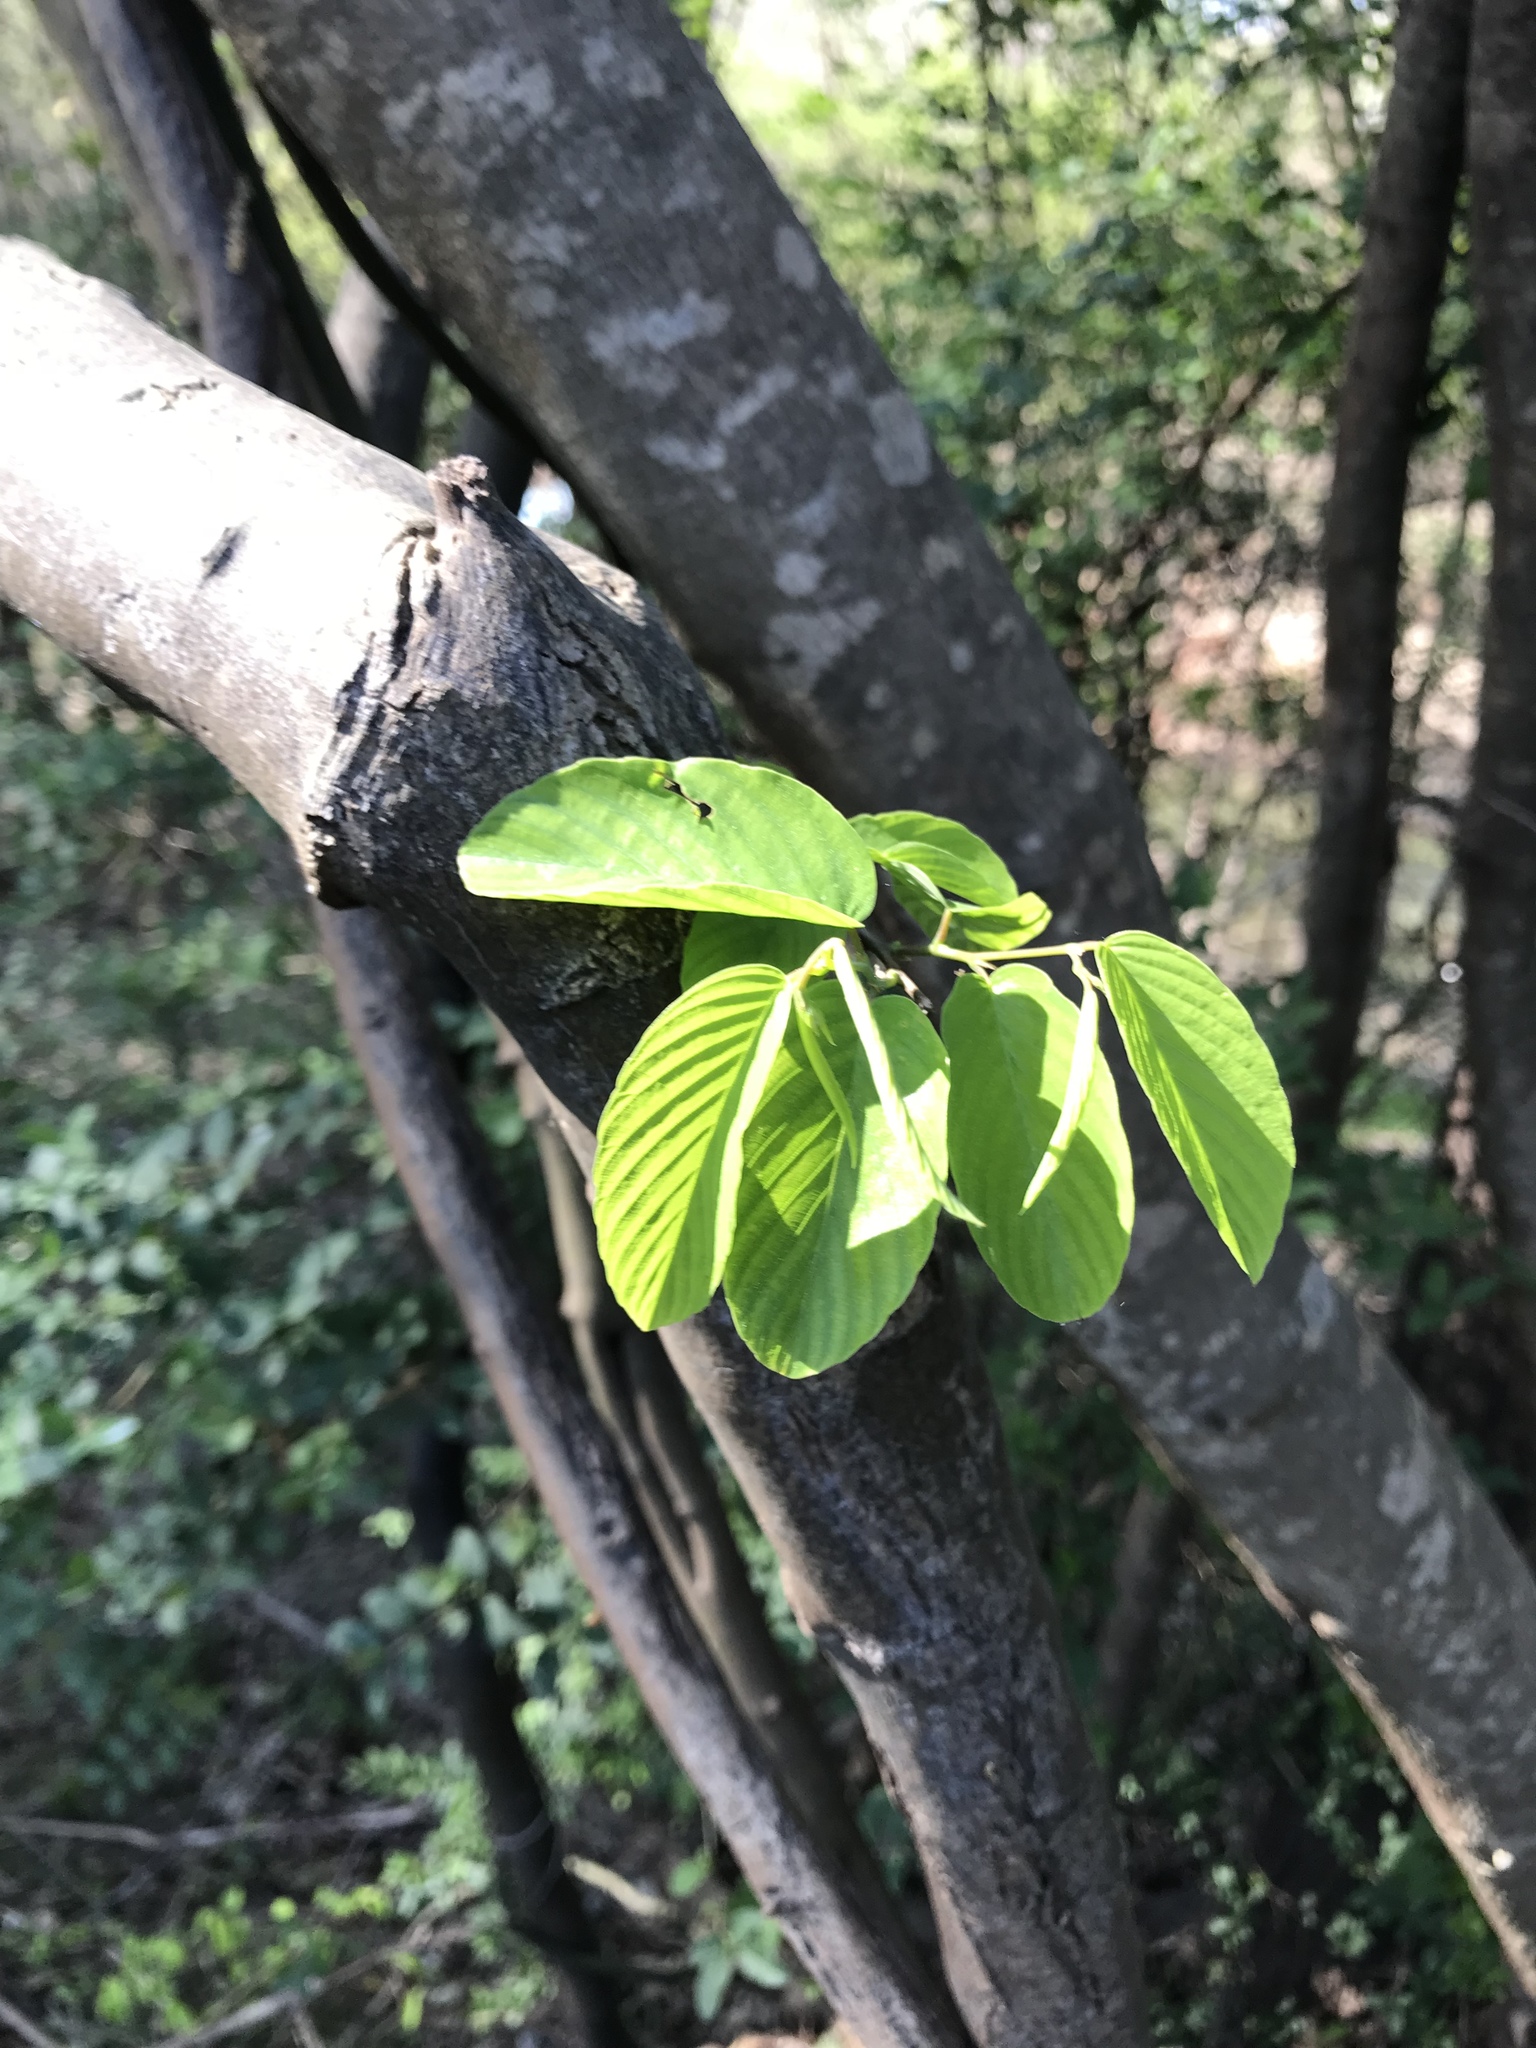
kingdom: Plantae
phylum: Tracheophyta
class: Magnoliopsida
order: Rosales
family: Rhamnaceae
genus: Berchemia
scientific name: Berchemia scandens
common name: Supplejack
